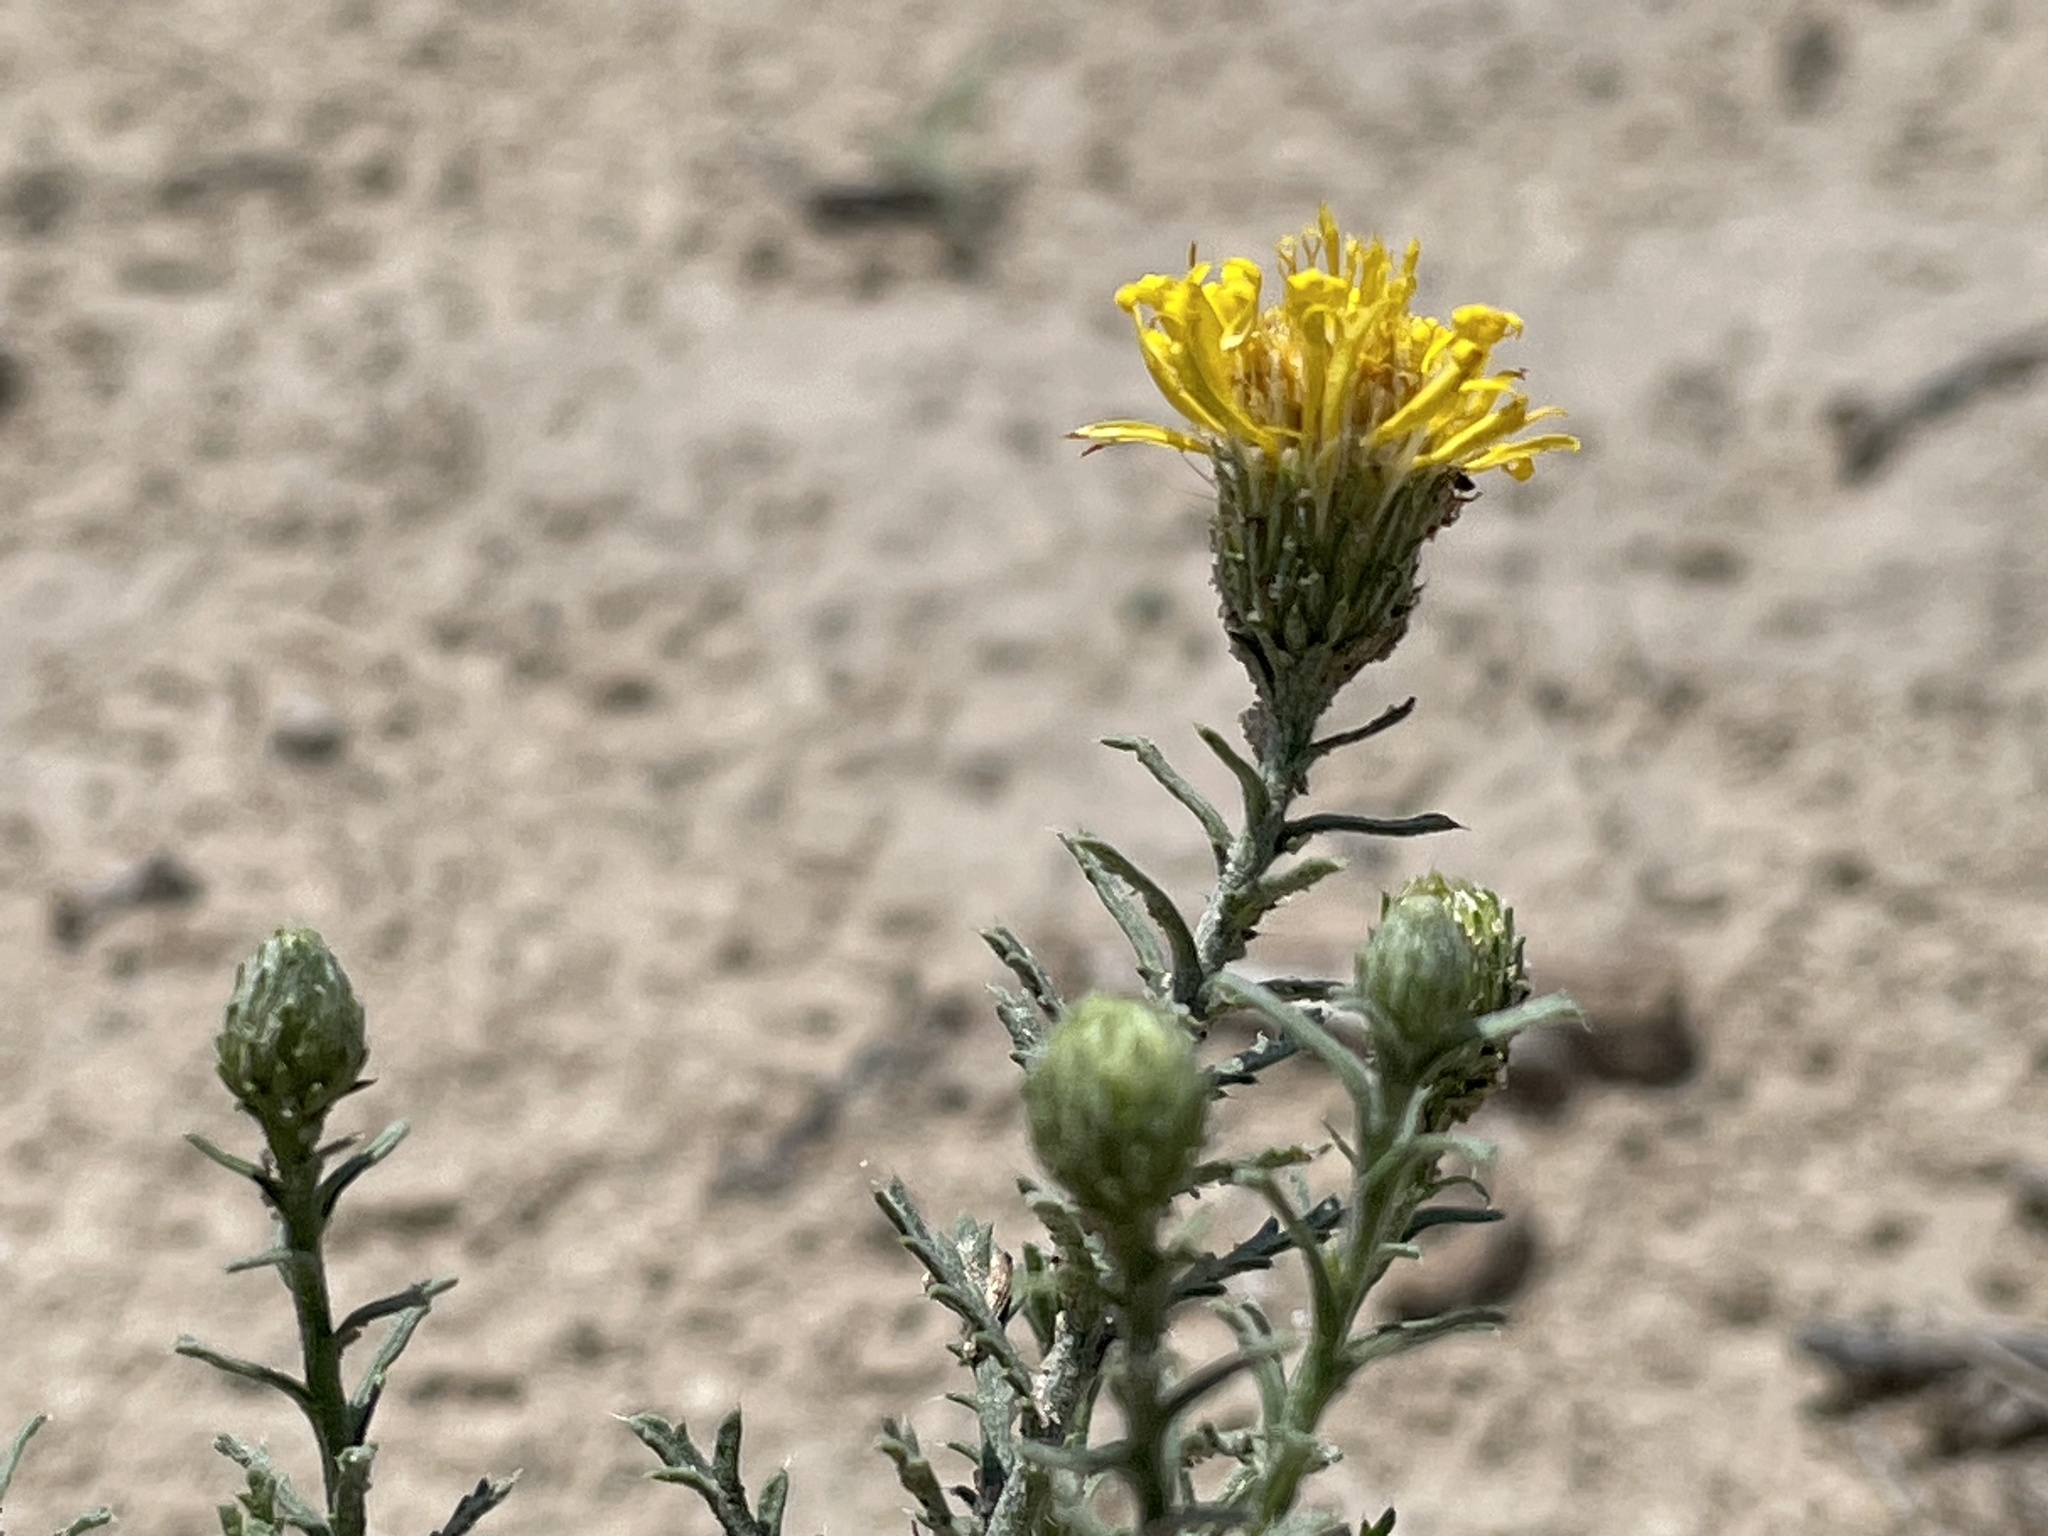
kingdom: Plantae
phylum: Tracheophyta
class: Magnoliopsida
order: Asterales
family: Asteraceae
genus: Xanthisma
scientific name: Xanthisma spinulosum
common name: Spiny goldenweed
